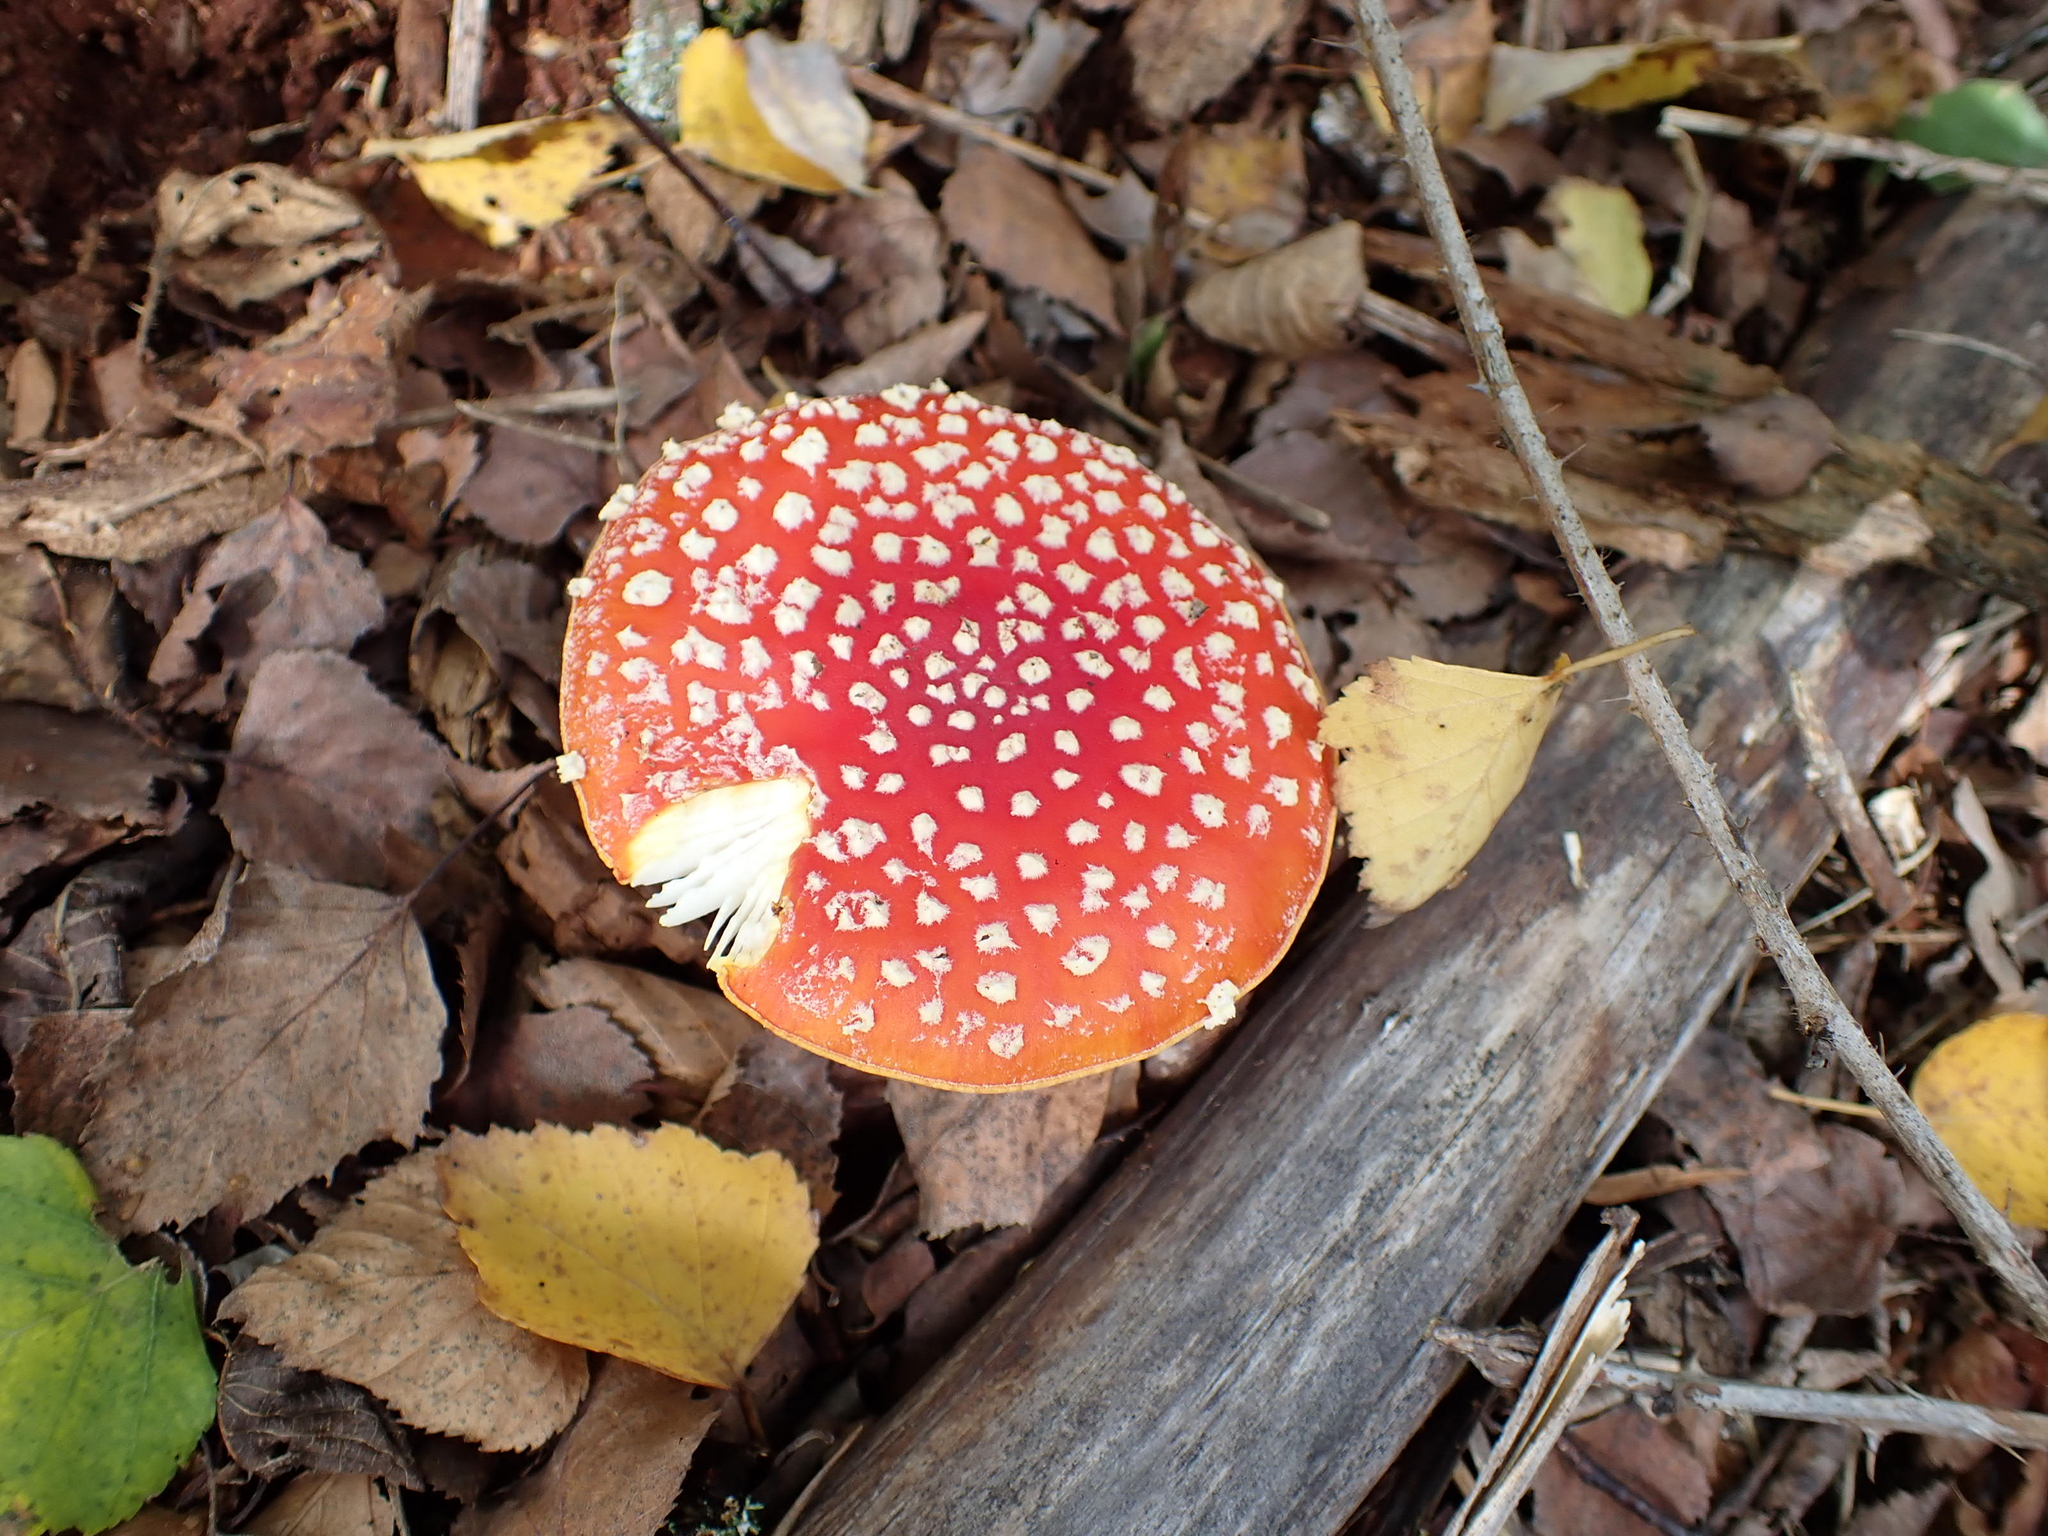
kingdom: Fungi
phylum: Basidiomycota
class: Agaricomycetes
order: Agaricales
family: Amanitaceae
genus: Amanita
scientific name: Amanita muscaria
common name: Fly agaric
